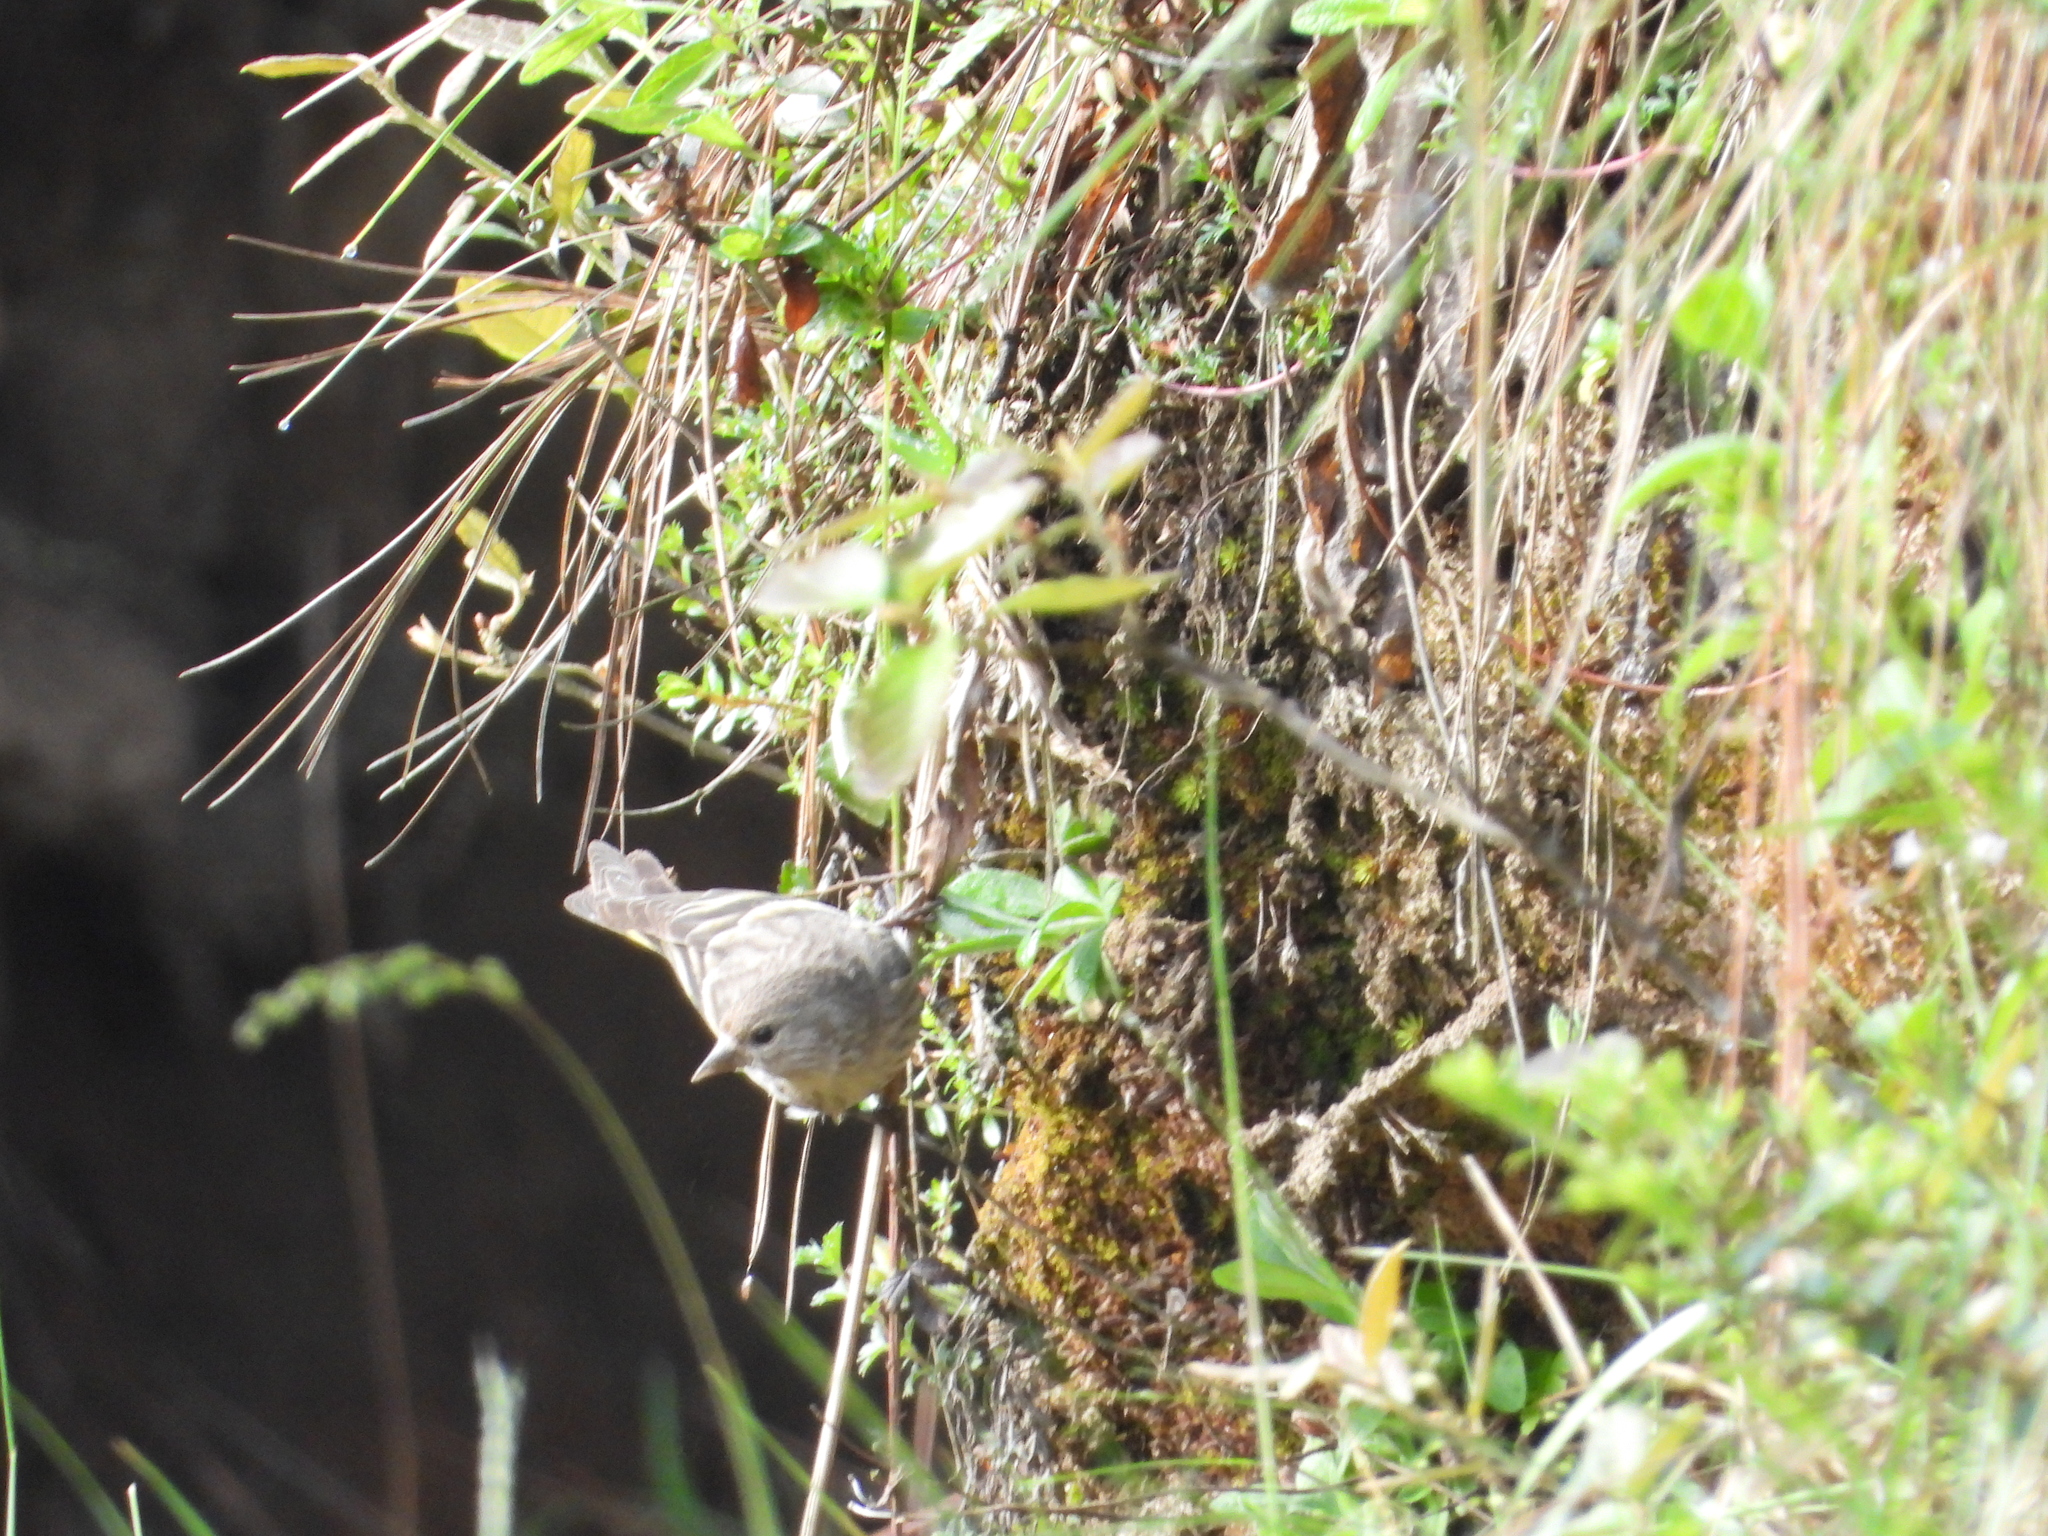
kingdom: Animalia
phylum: Chordata
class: Aves
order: Passeriformes
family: Fringillidae
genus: Spinus
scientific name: Spinus pinus
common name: Pine siskin
